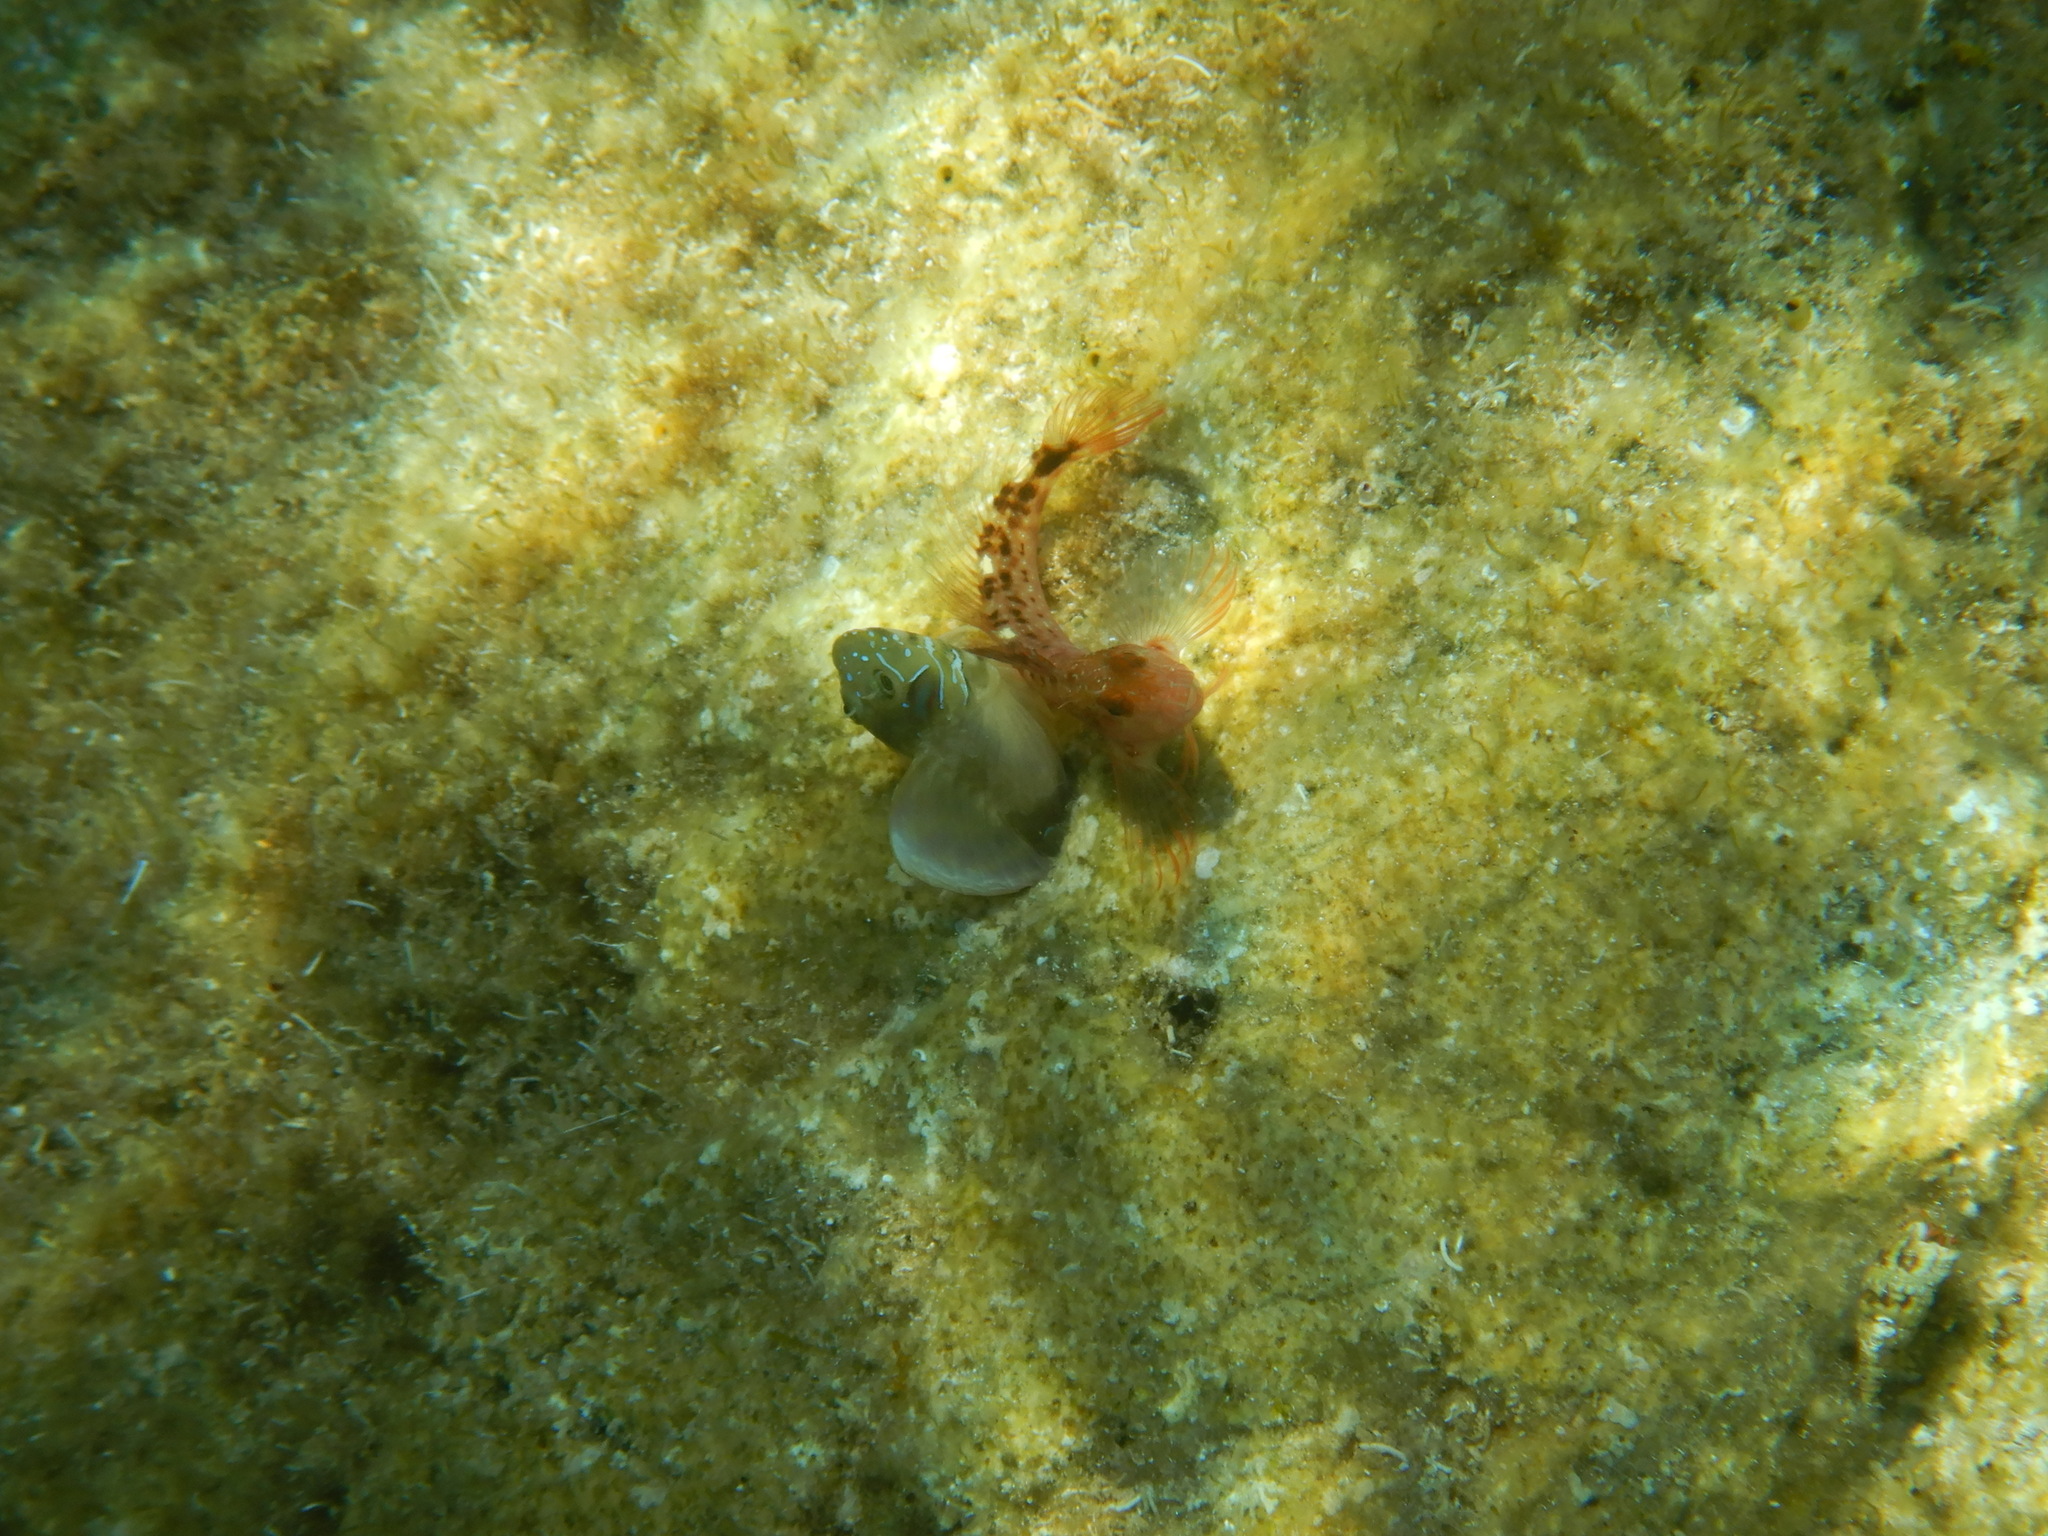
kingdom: Animalia
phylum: Chordata
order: Perciformes
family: Blenniidae
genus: Parablennius
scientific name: Parablennius zvonimiri
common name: Red blenny
